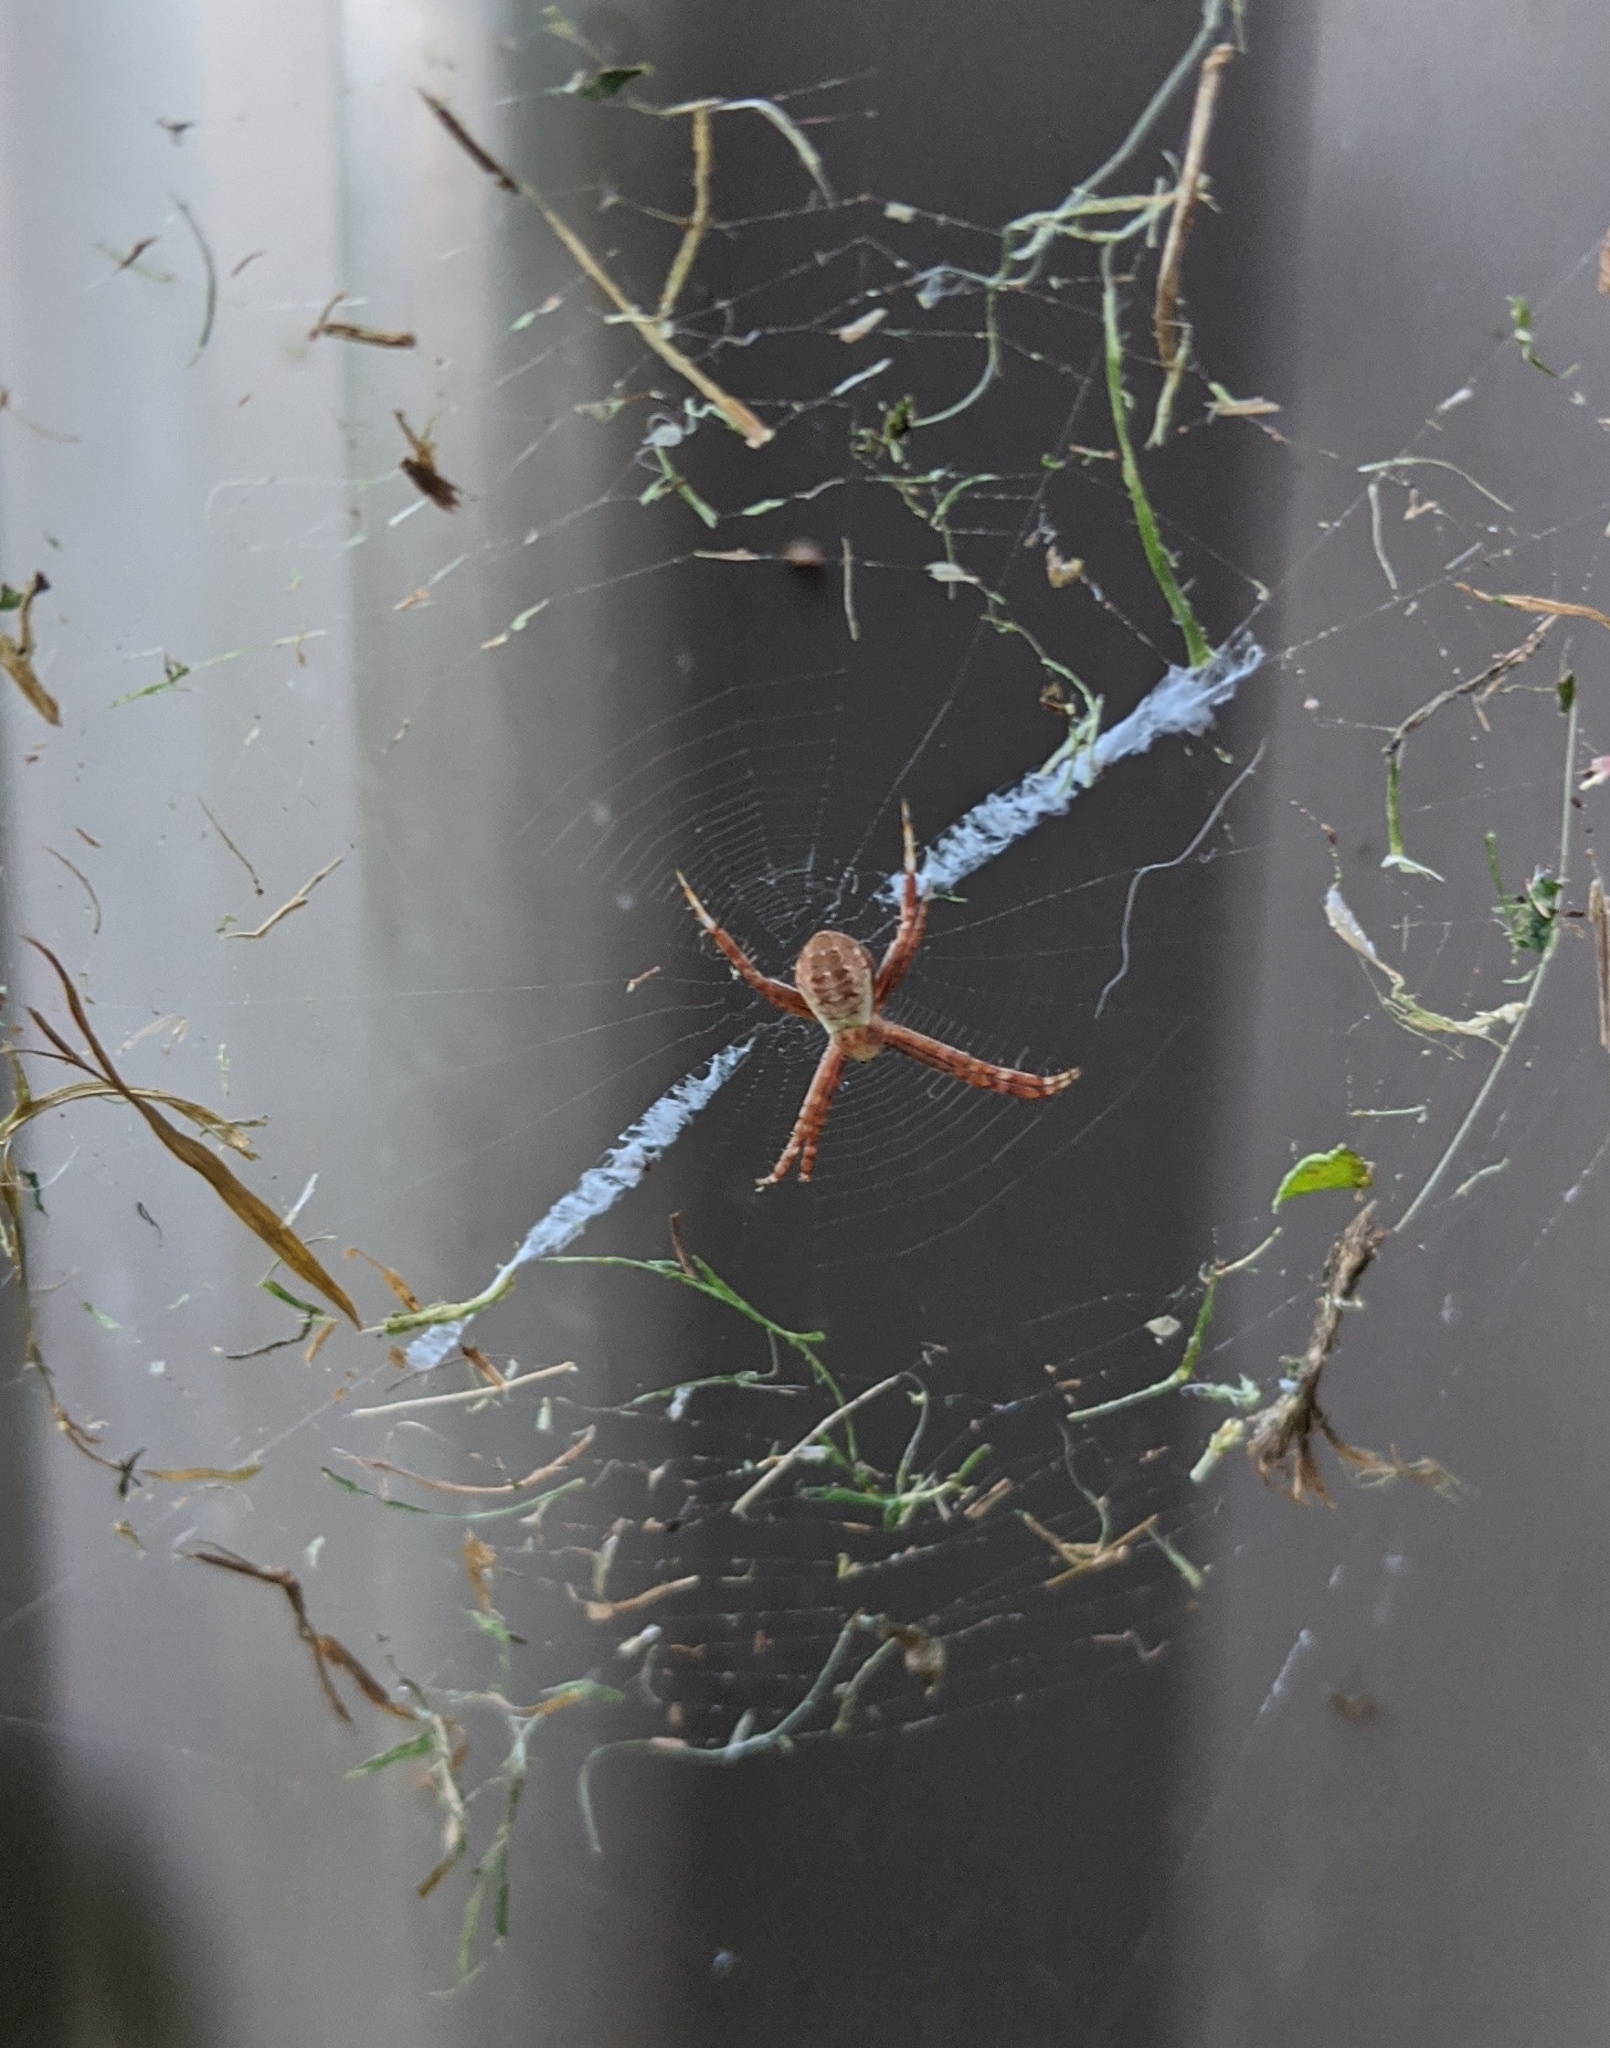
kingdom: Animalia
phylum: Arthropoda
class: Arachnida
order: Araneae
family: Araneidae
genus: Argiope
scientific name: Argiope keyserlingi
